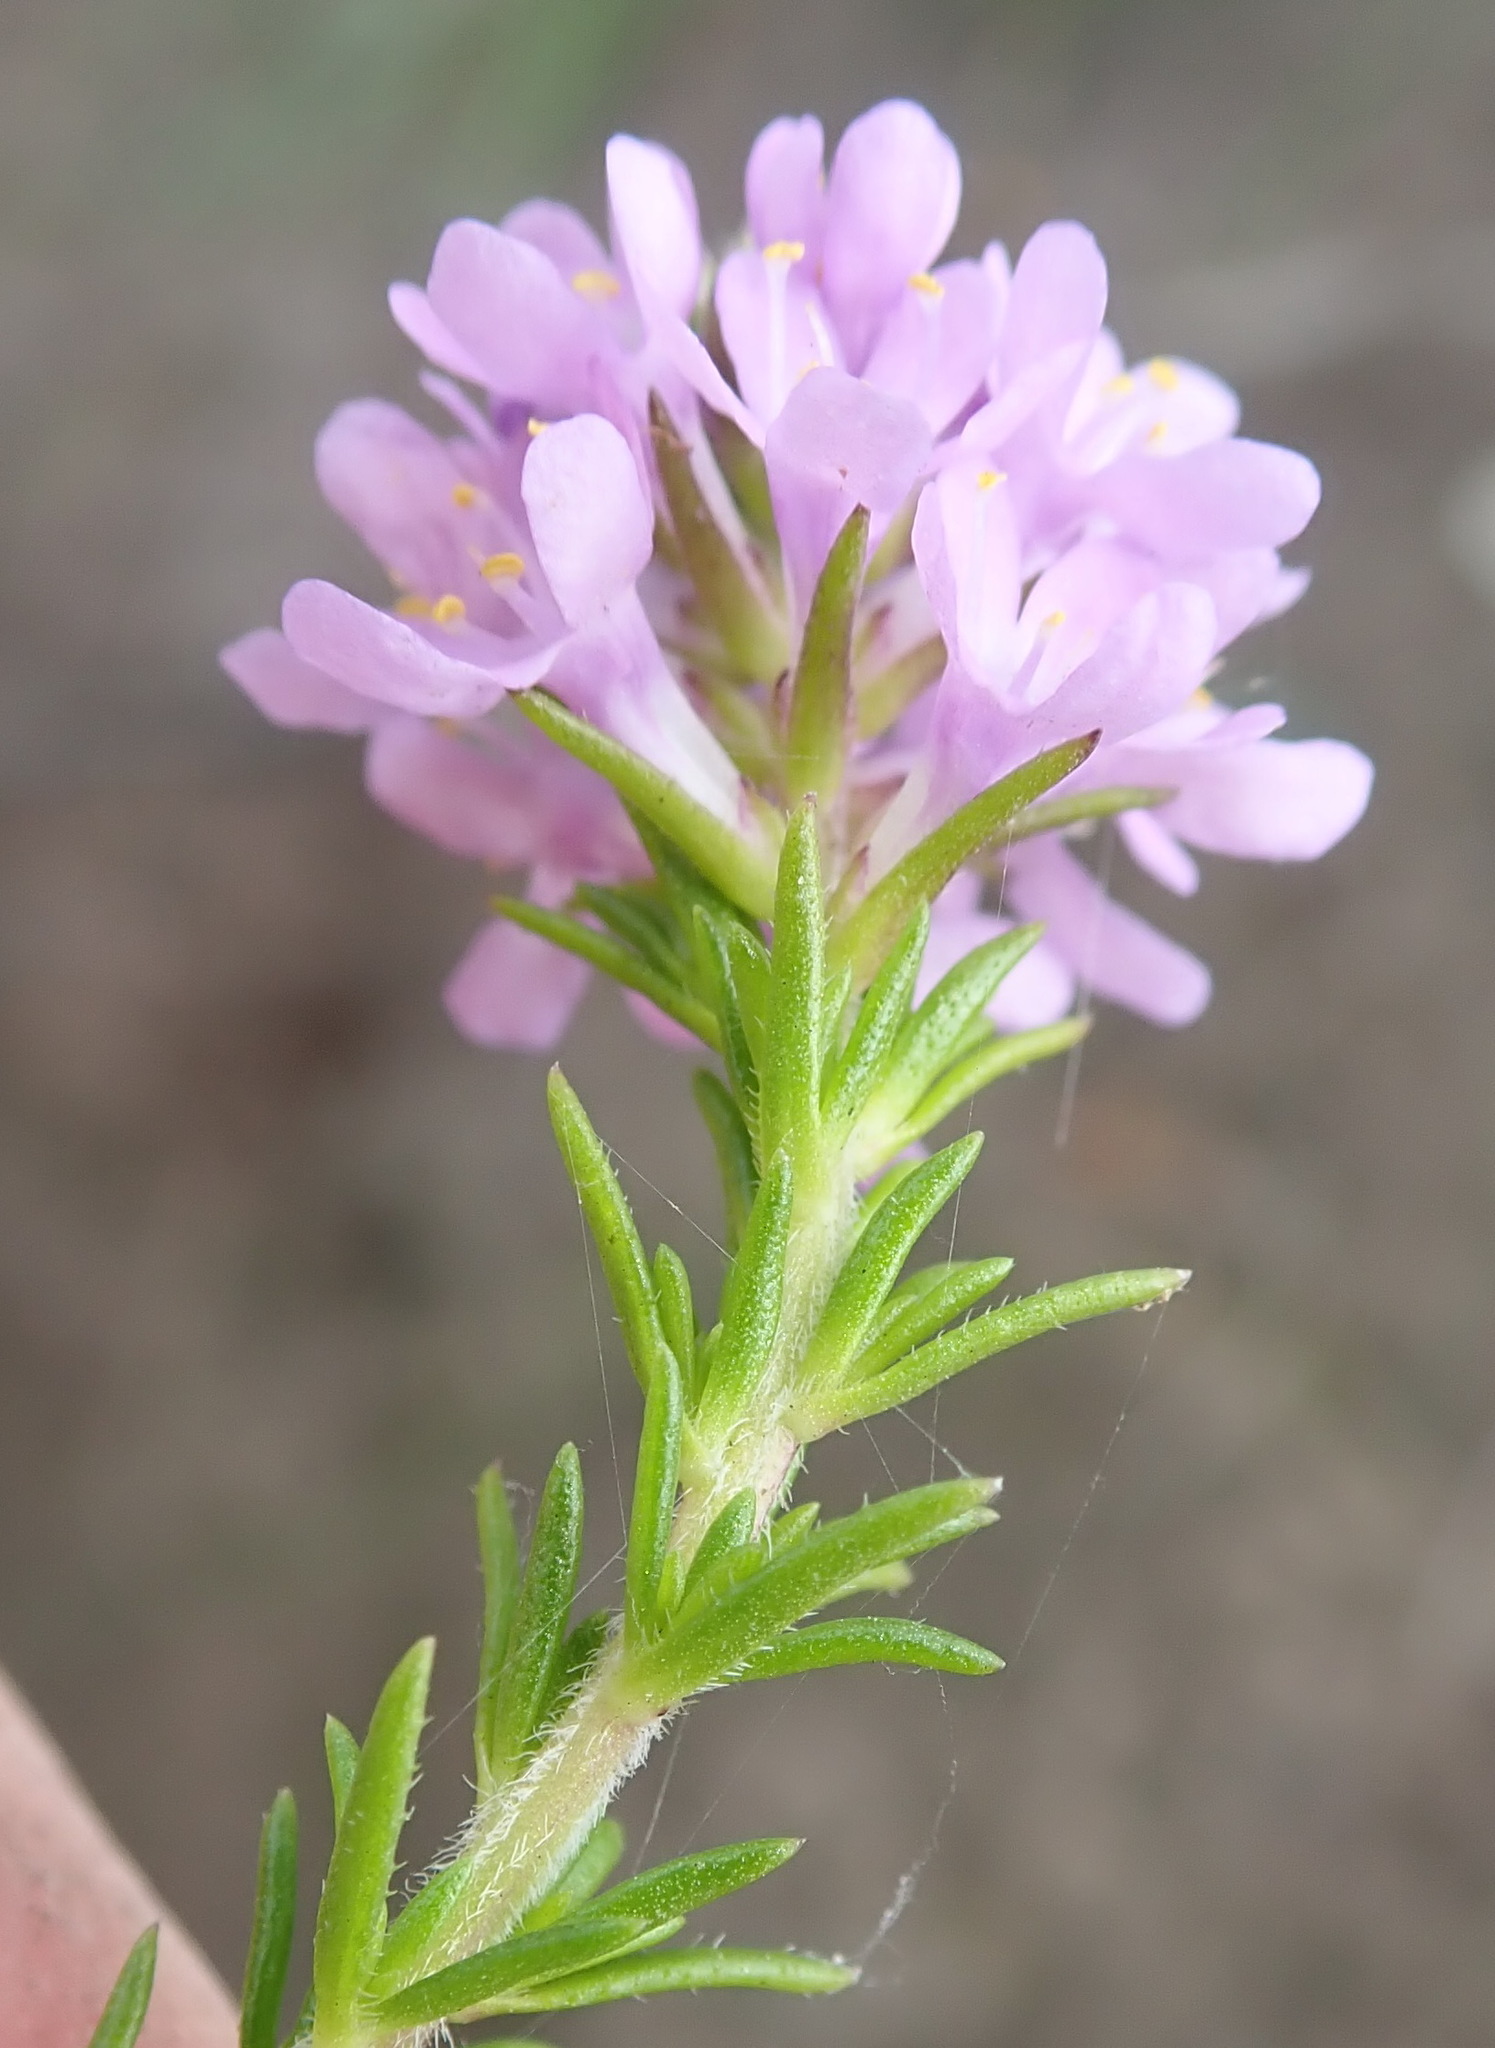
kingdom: Plantae
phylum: Tracheophyta
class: Magnoliopsida
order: Lamiales
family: Scrophulariaceae
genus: Selago
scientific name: Selago villicaulis
